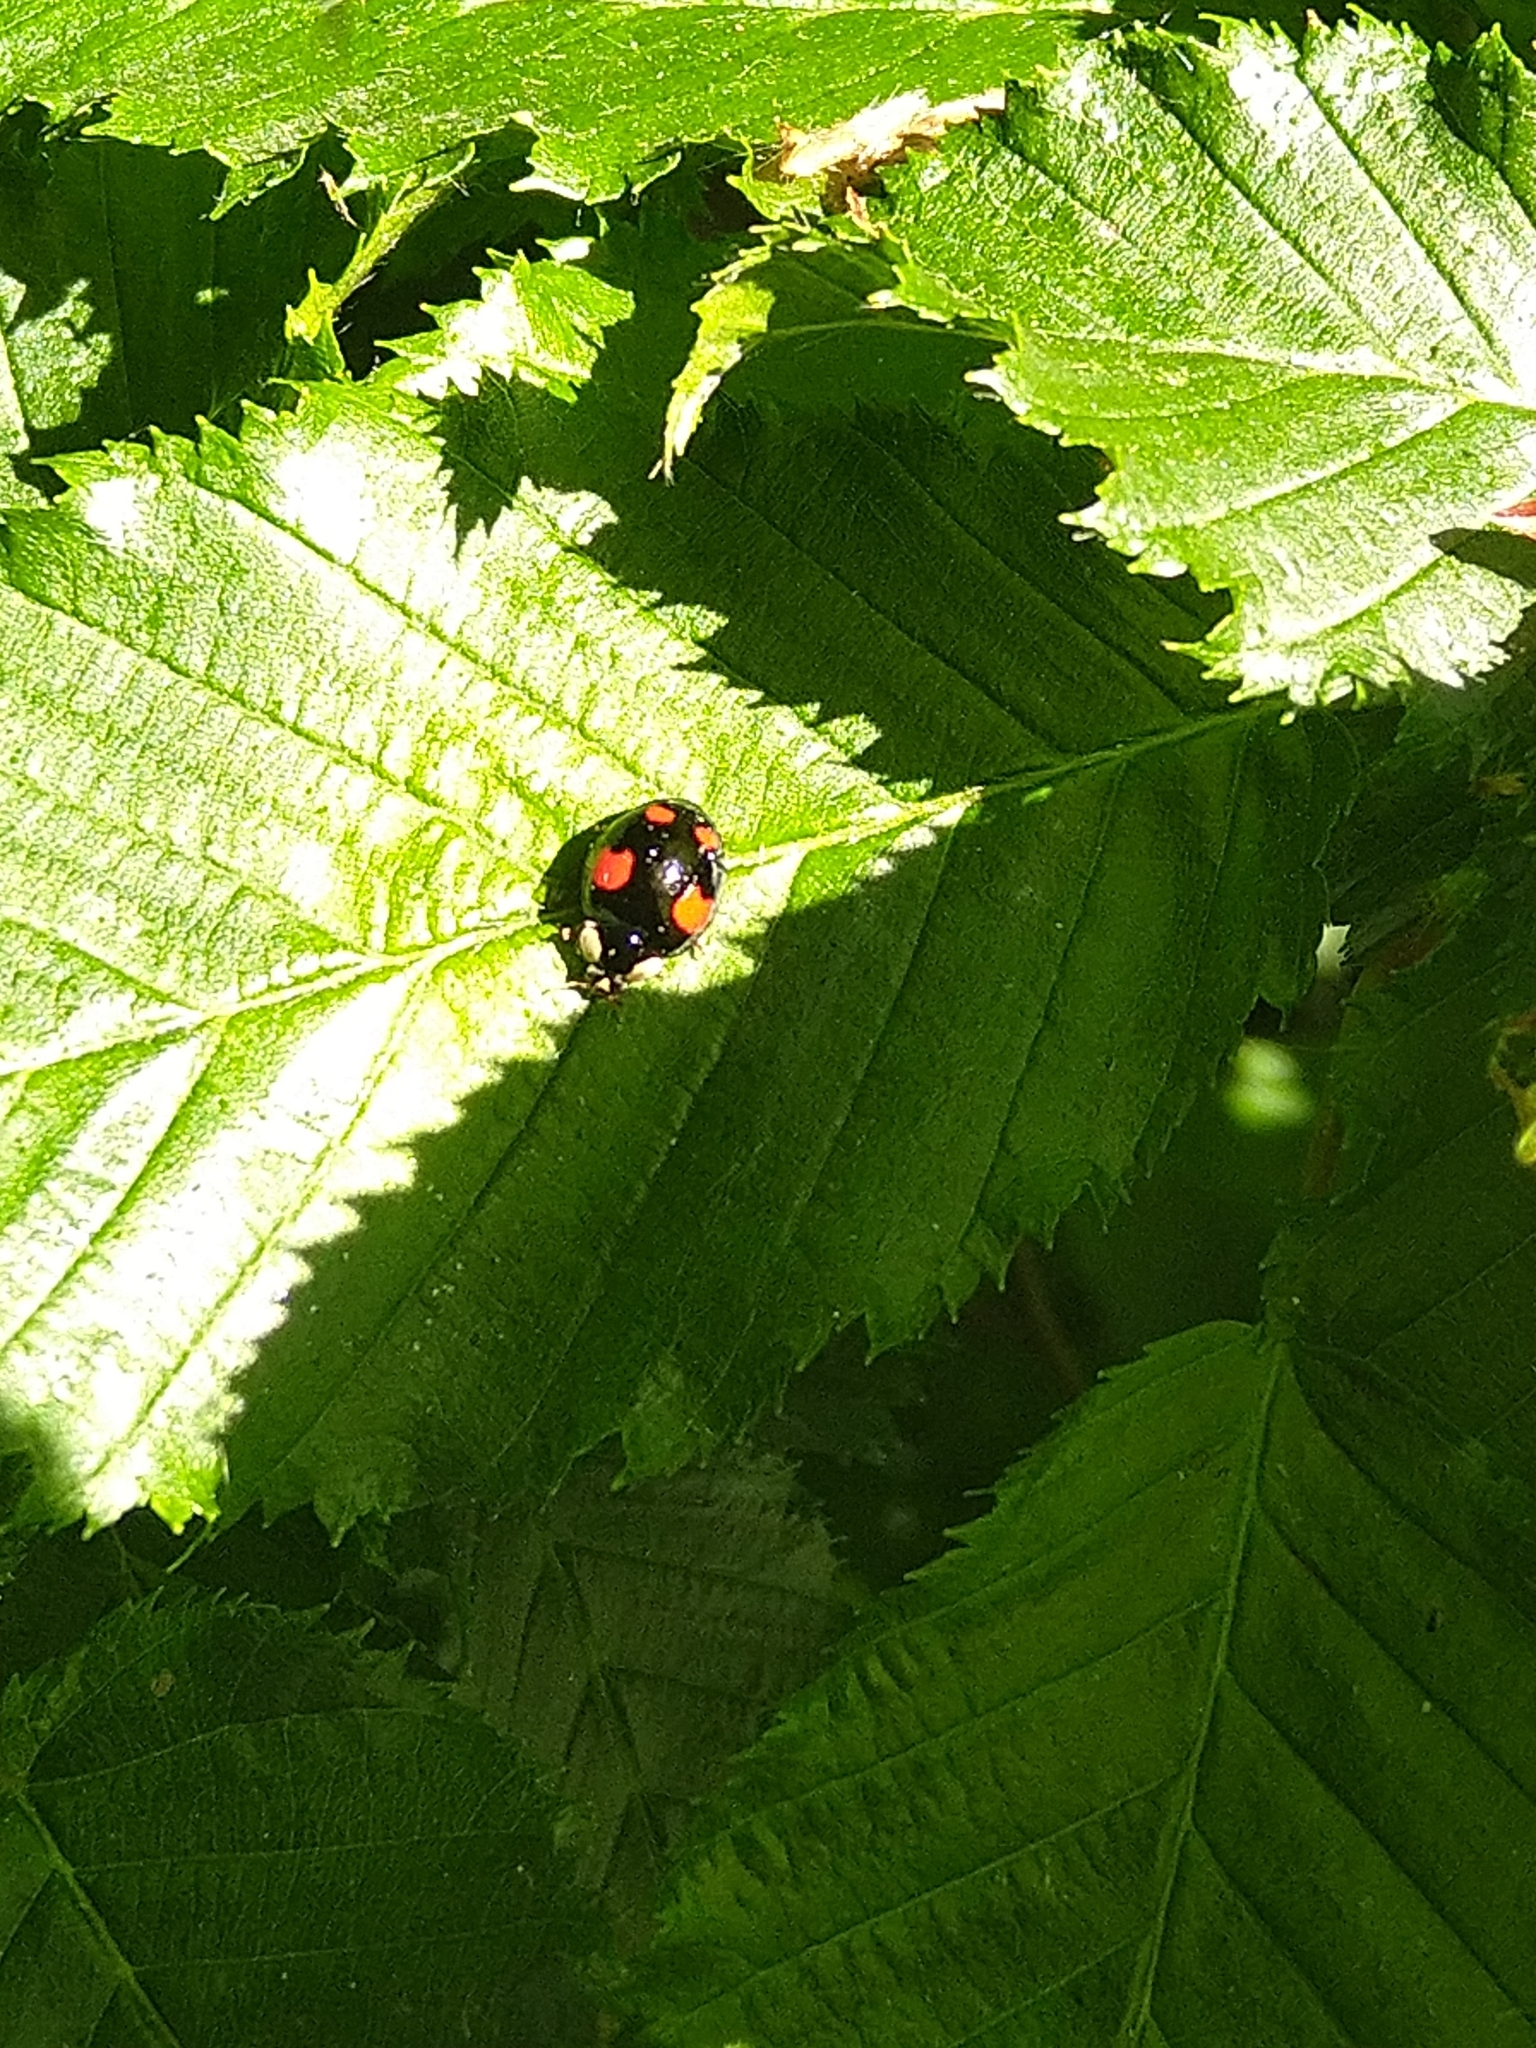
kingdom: Animalia
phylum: Arthropoda
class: Insecta
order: Coleoptera
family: Coccinellidae
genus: Harmonia
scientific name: Harmonia axyridis
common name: Harlequin ladybird
